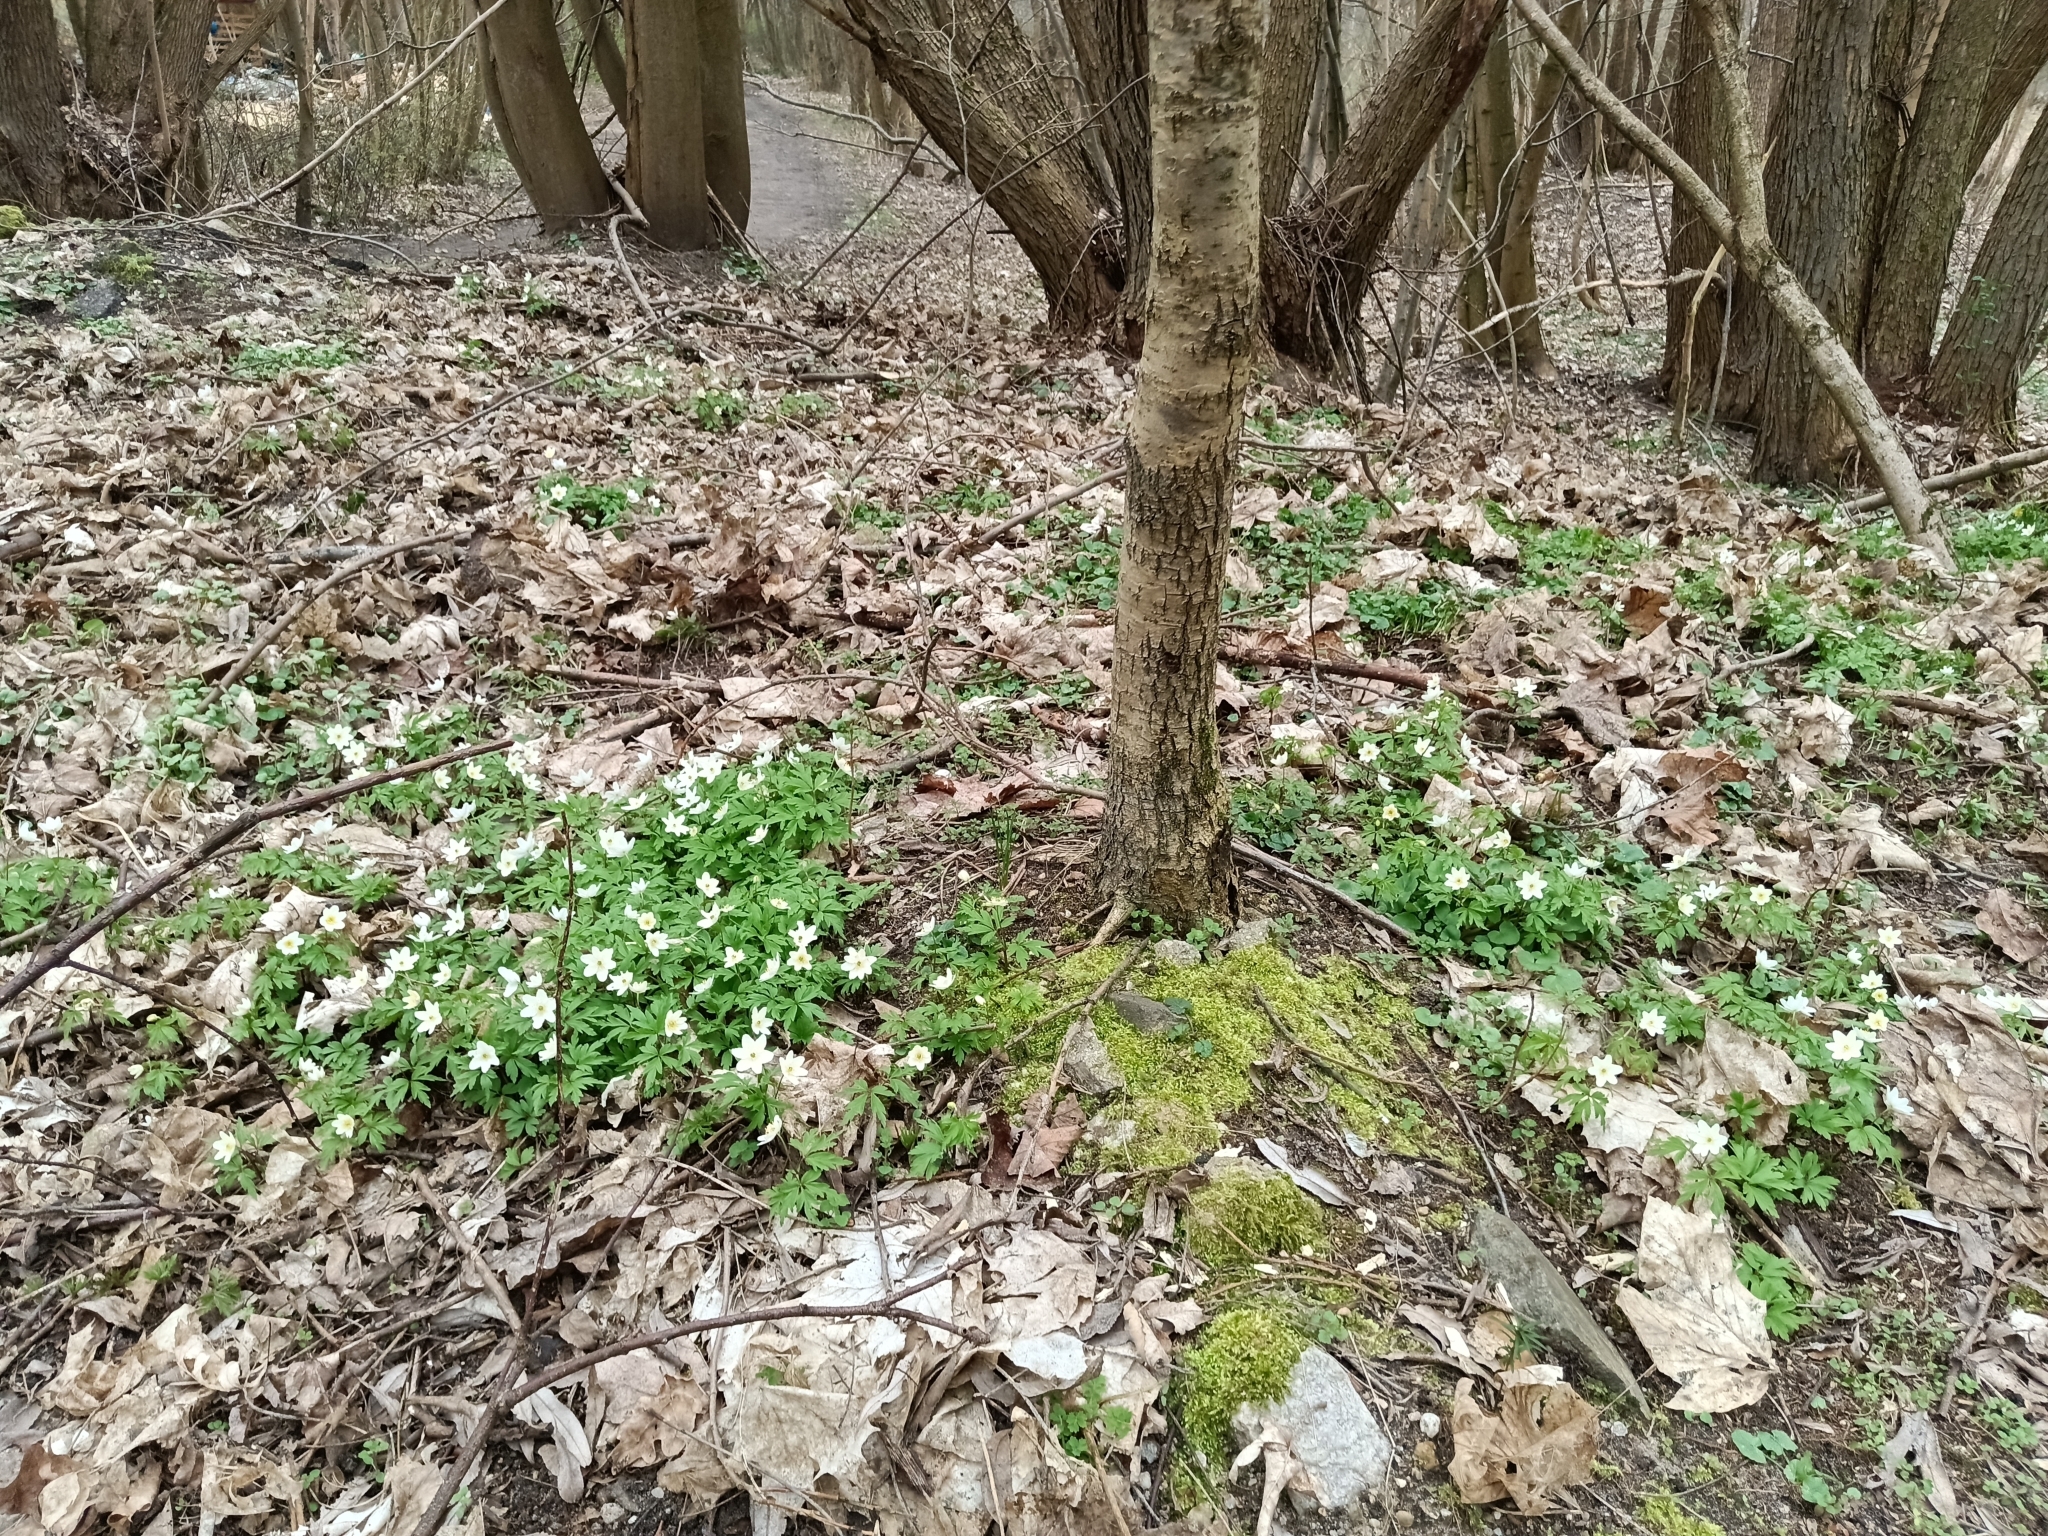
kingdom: Plantae
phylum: Tracheophyta
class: Magnoliopsida
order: Ranunculales
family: Ranunculaceae
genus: Anemone
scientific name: Anemone nemorosa
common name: Wood anemone
